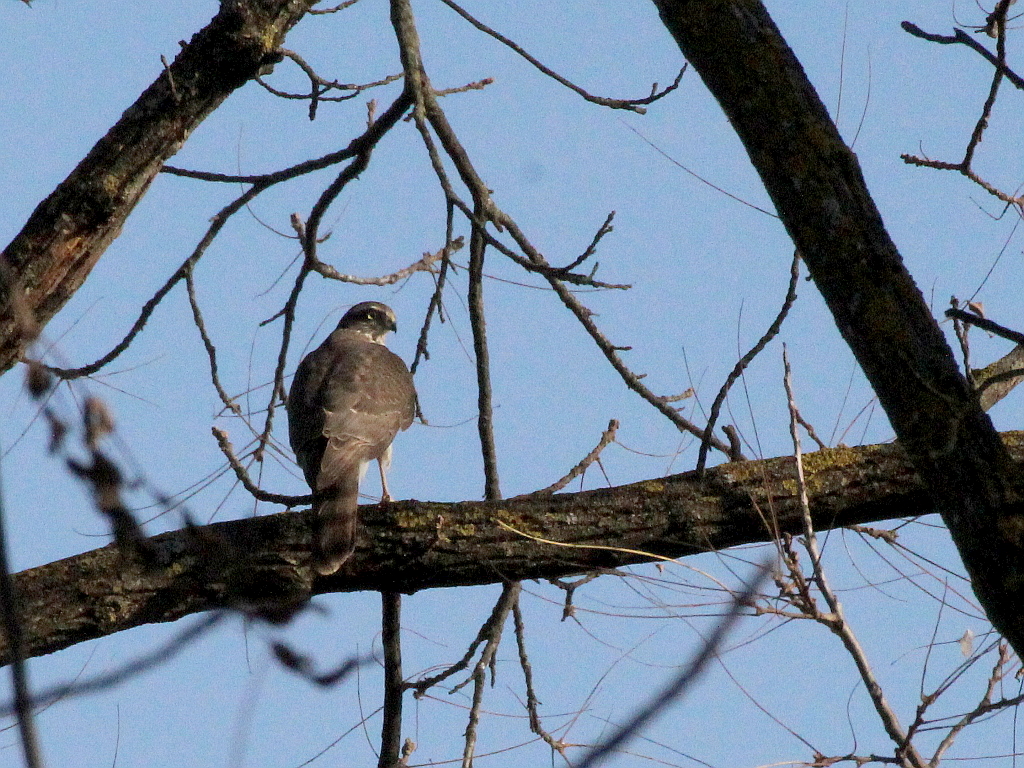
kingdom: Animalia
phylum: Chordata
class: Aves
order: Accipitriformes
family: Accipitridae
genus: Accipiter
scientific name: Accipiter nisus
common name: Eurasian sparrowhawk
